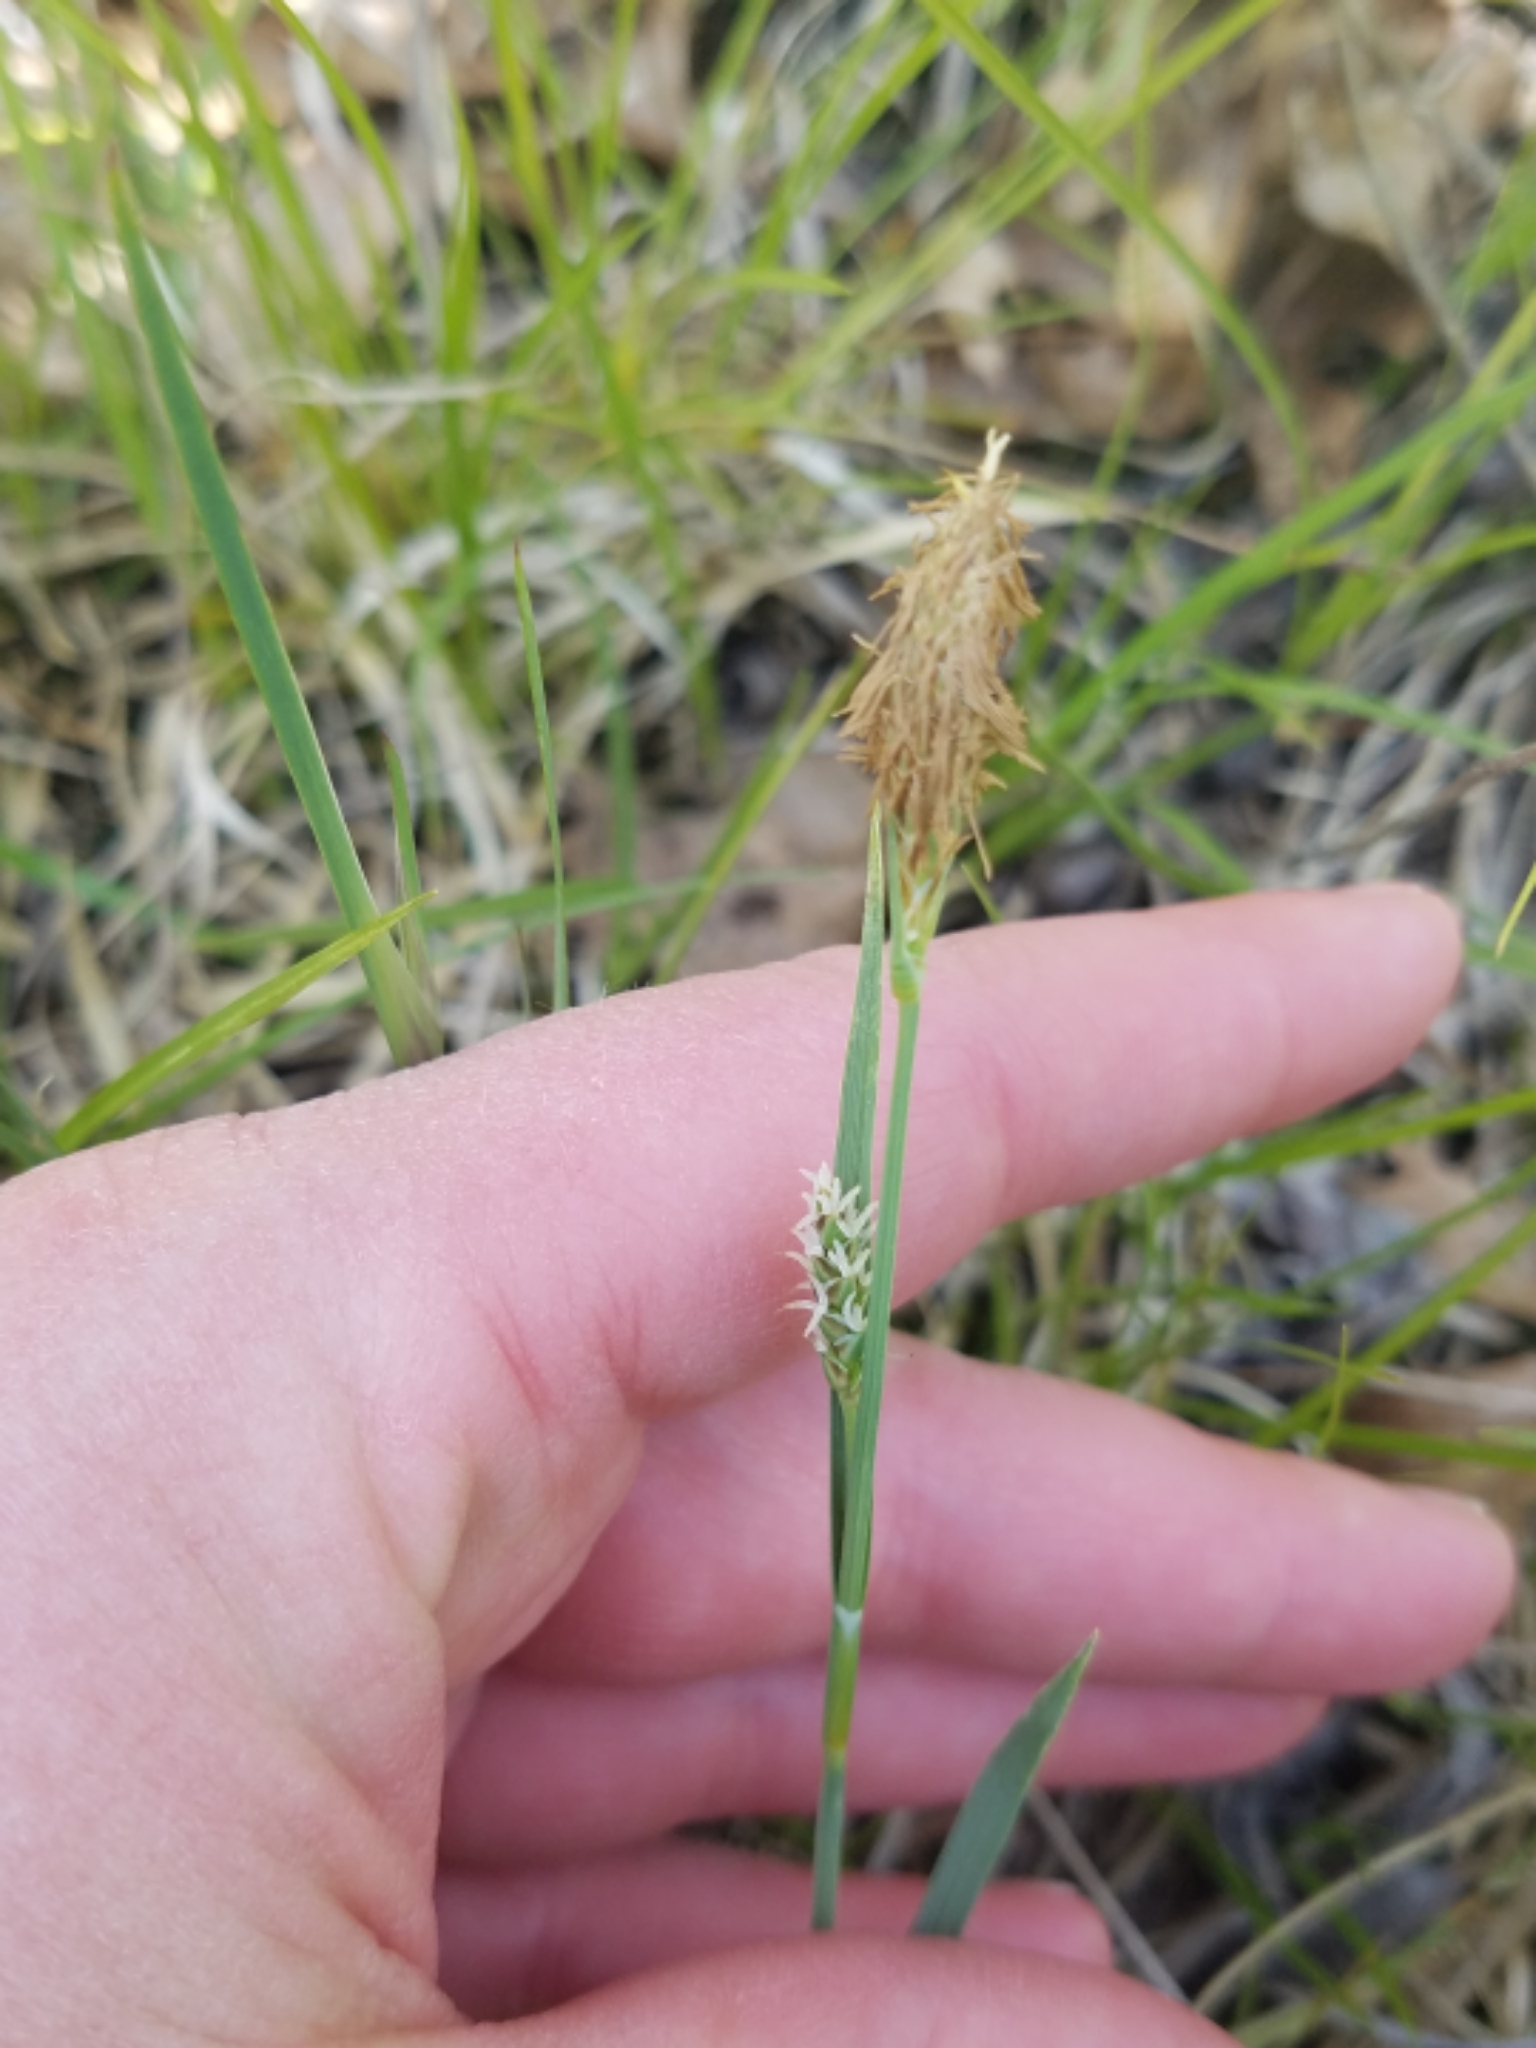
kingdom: Plantae
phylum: Tracheophyta
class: Liliopsida
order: Poales
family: Cyperaceae
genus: Carex
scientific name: Carex meadii
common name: Mead's sedge
